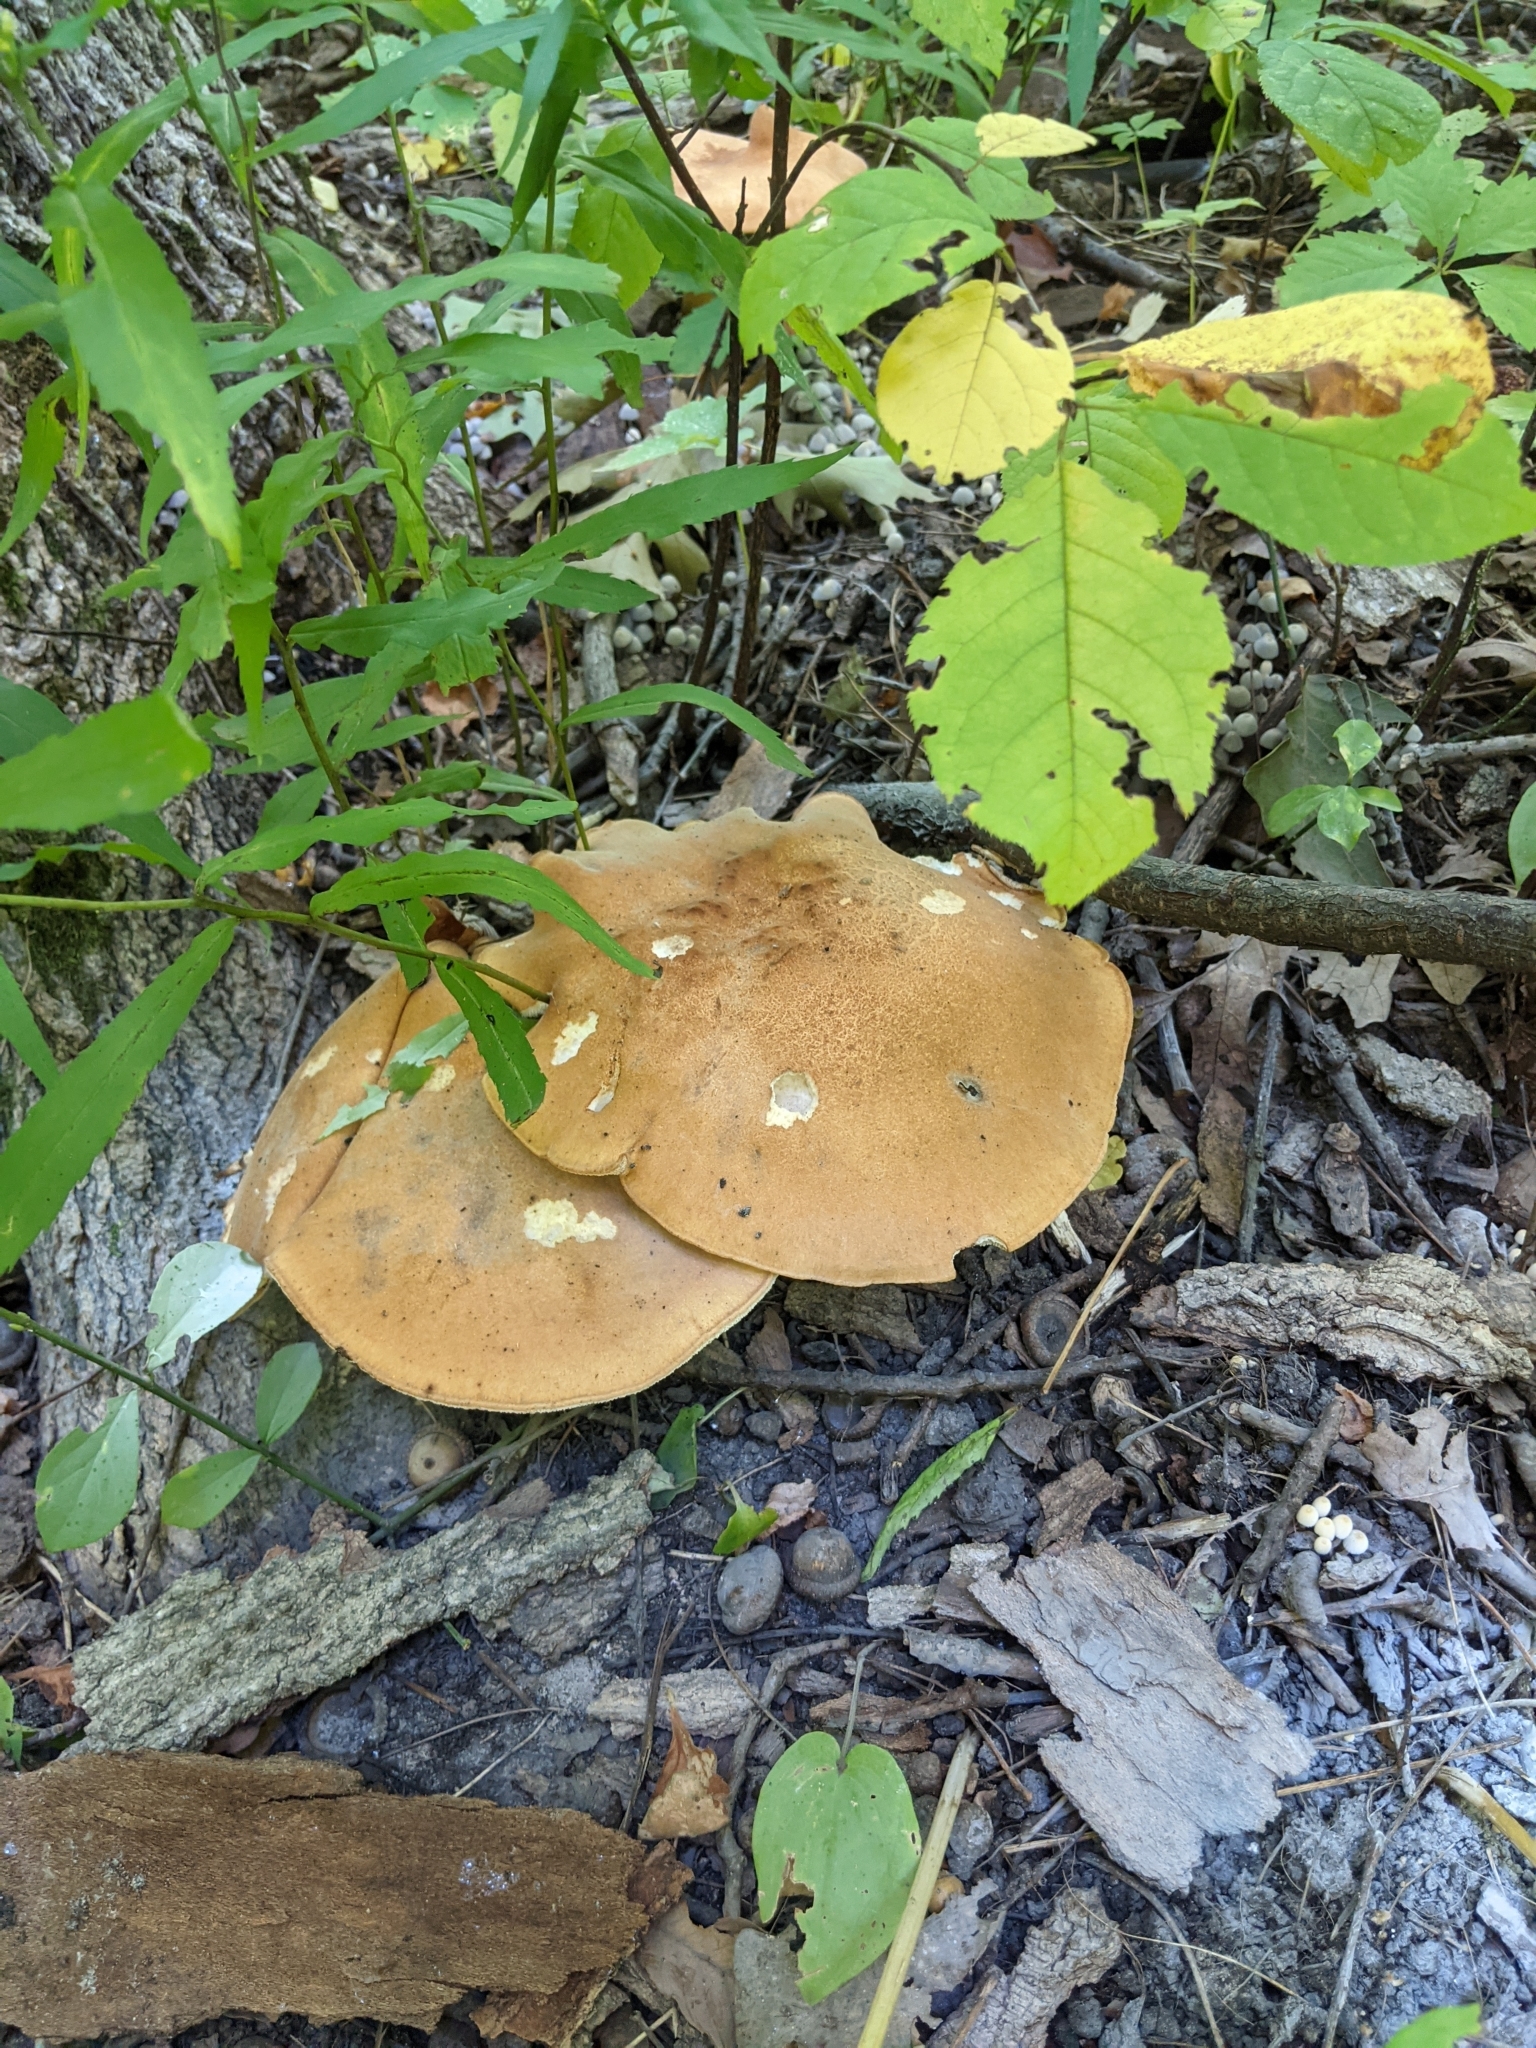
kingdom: Fungi
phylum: Basidiomycota
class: Agaricomycetes
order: Polyporales
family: Polyporaceae
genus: Polyporus
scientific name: Polyporus radicatus
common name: Rooting polypore
